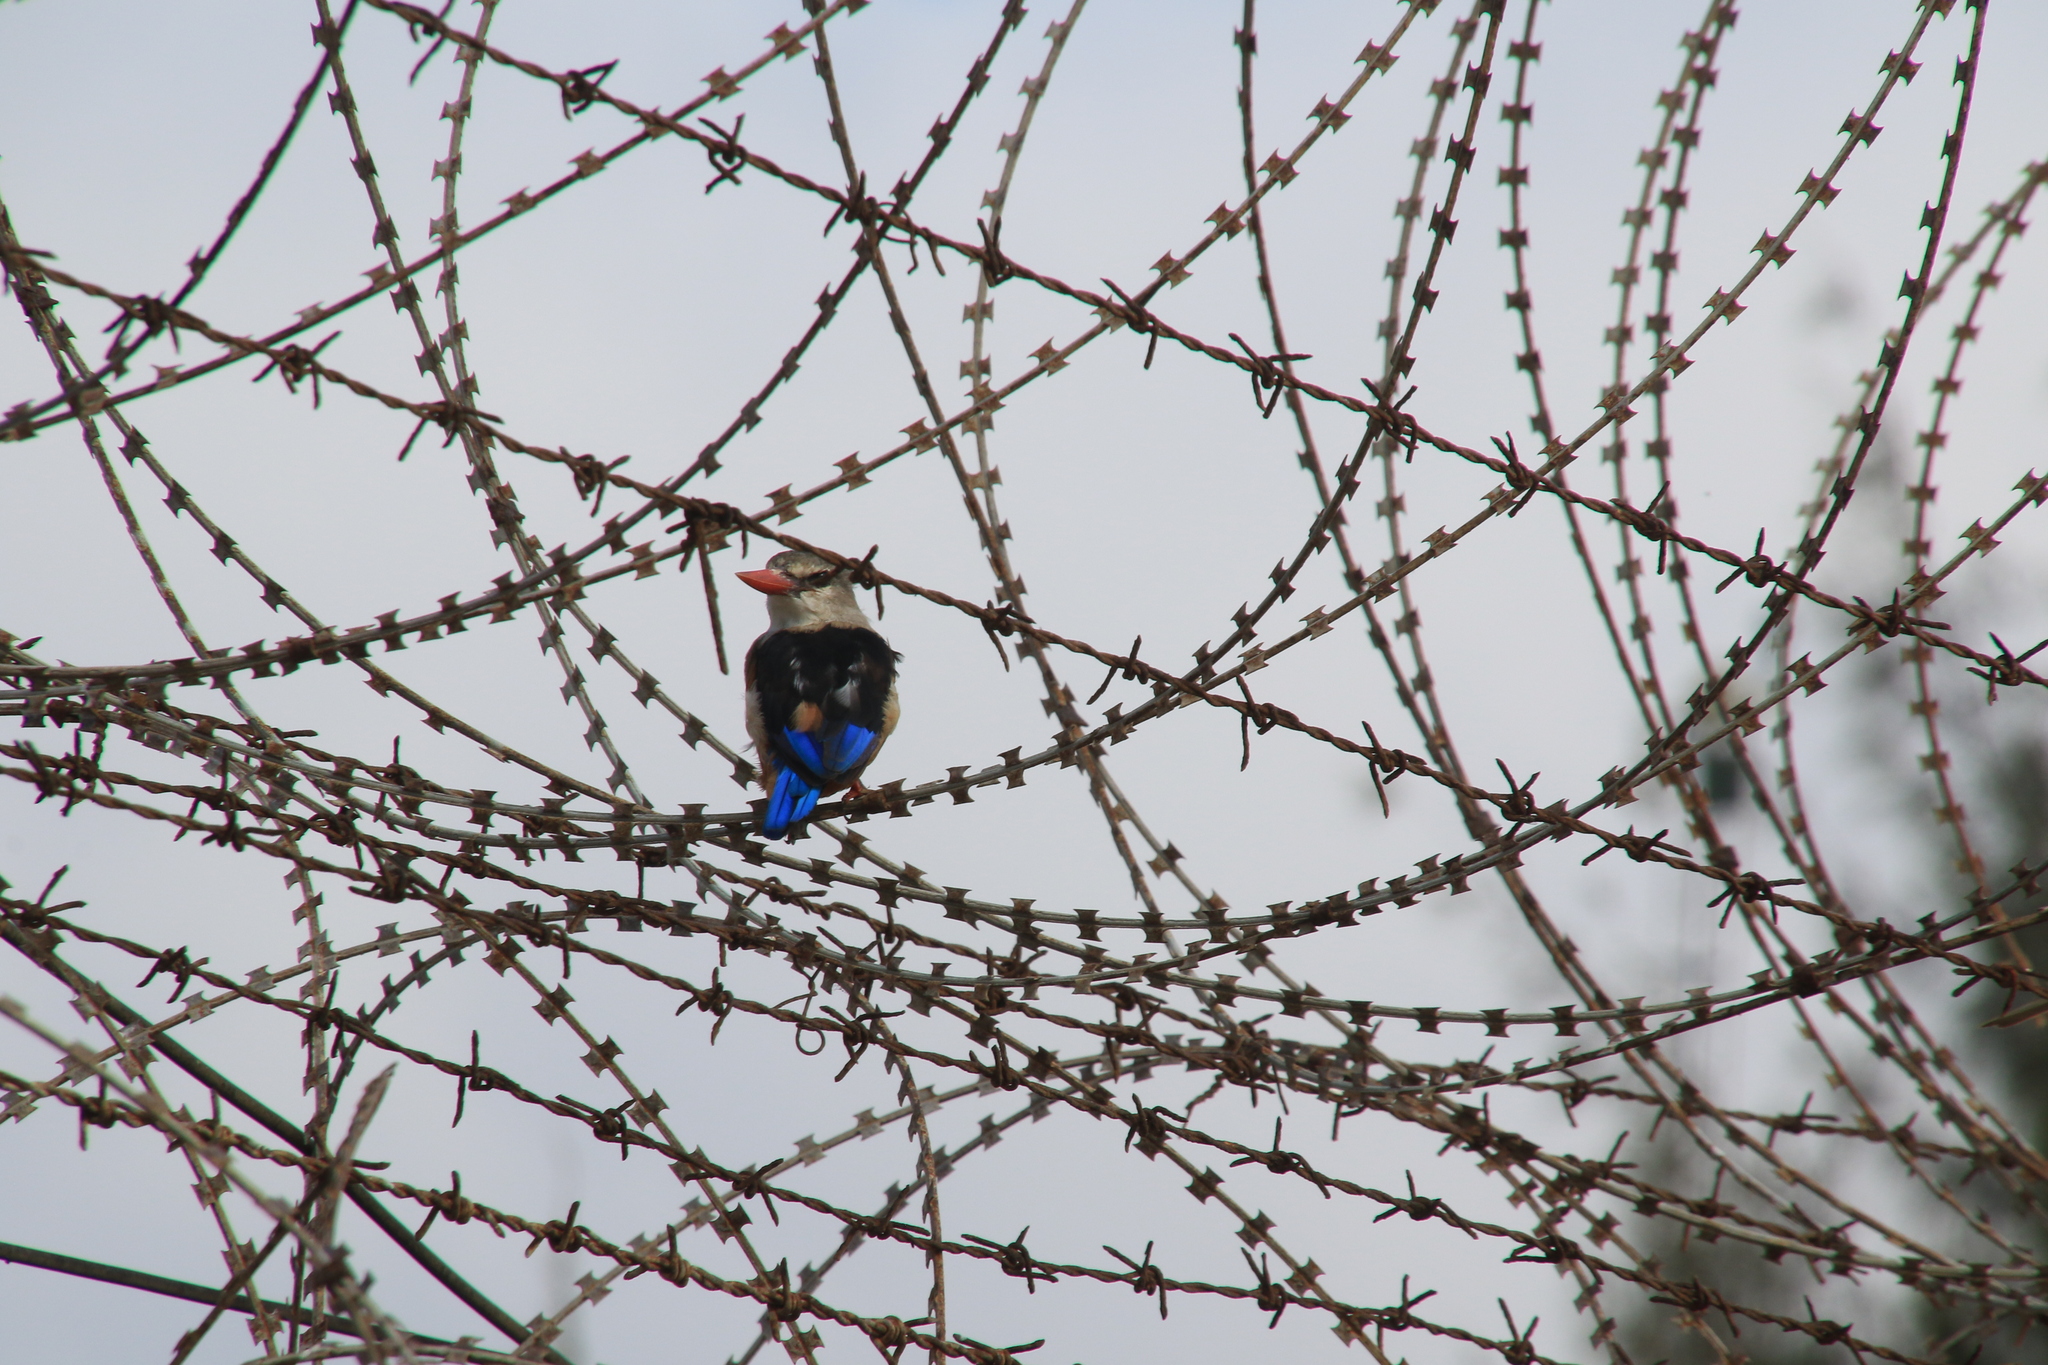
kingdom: Animalia
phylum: Chordata
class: Aves
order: Coraciiformes
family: Alcedinidae
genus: Halcyon
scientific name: Halcyon leucocephala
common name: Grey-headed kingfisher
